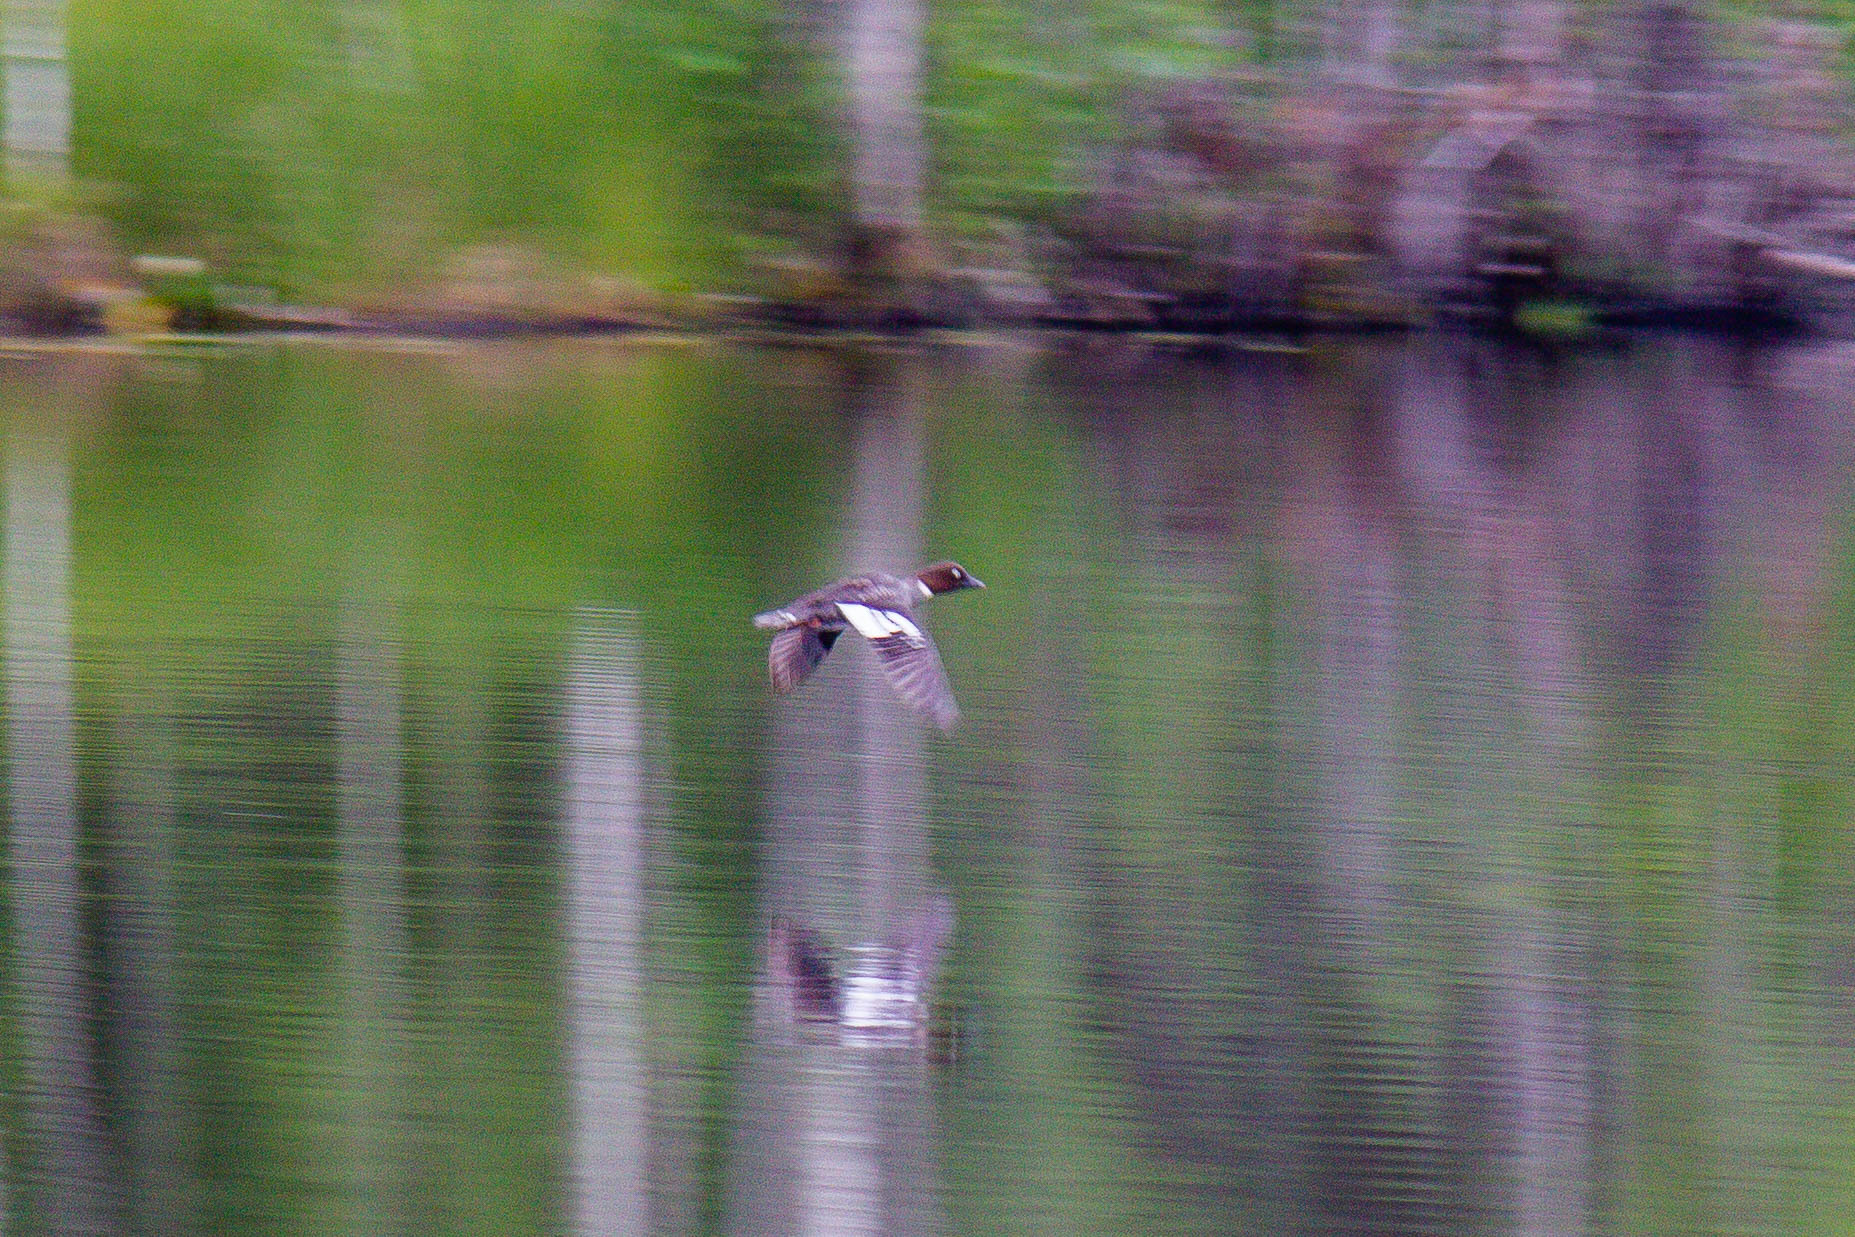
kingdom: Animalia
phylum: Chordata
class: Aves
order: Anseriformes
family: Anatidae
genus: Bucephala
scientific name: Bucephala clangula
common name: Common goldeneye
